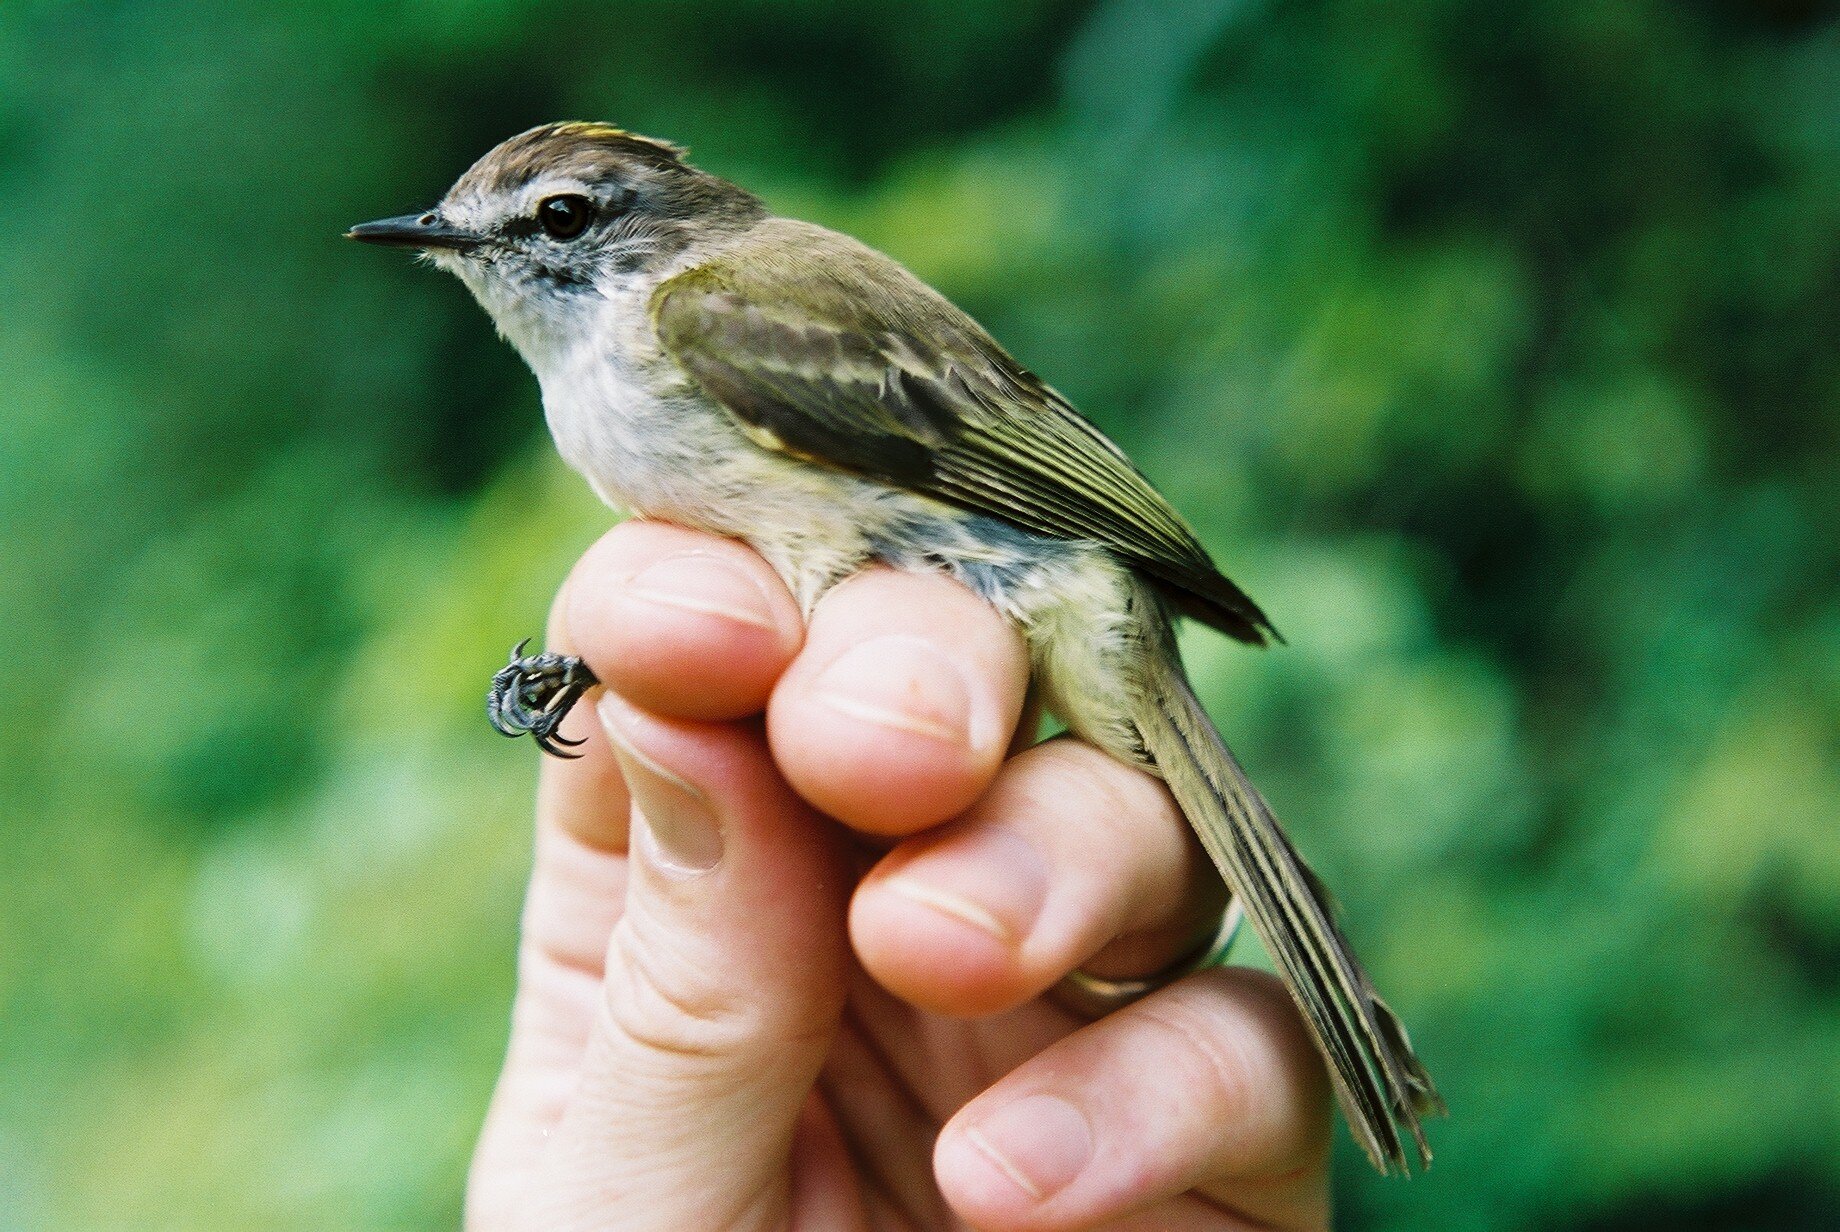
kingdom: Animalia
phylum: Chordata
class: Aves
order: Passeriformes
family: Tyrannidae
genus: Myiopagis
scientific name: Myiopagis cotta
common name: Jamaican elaenia
